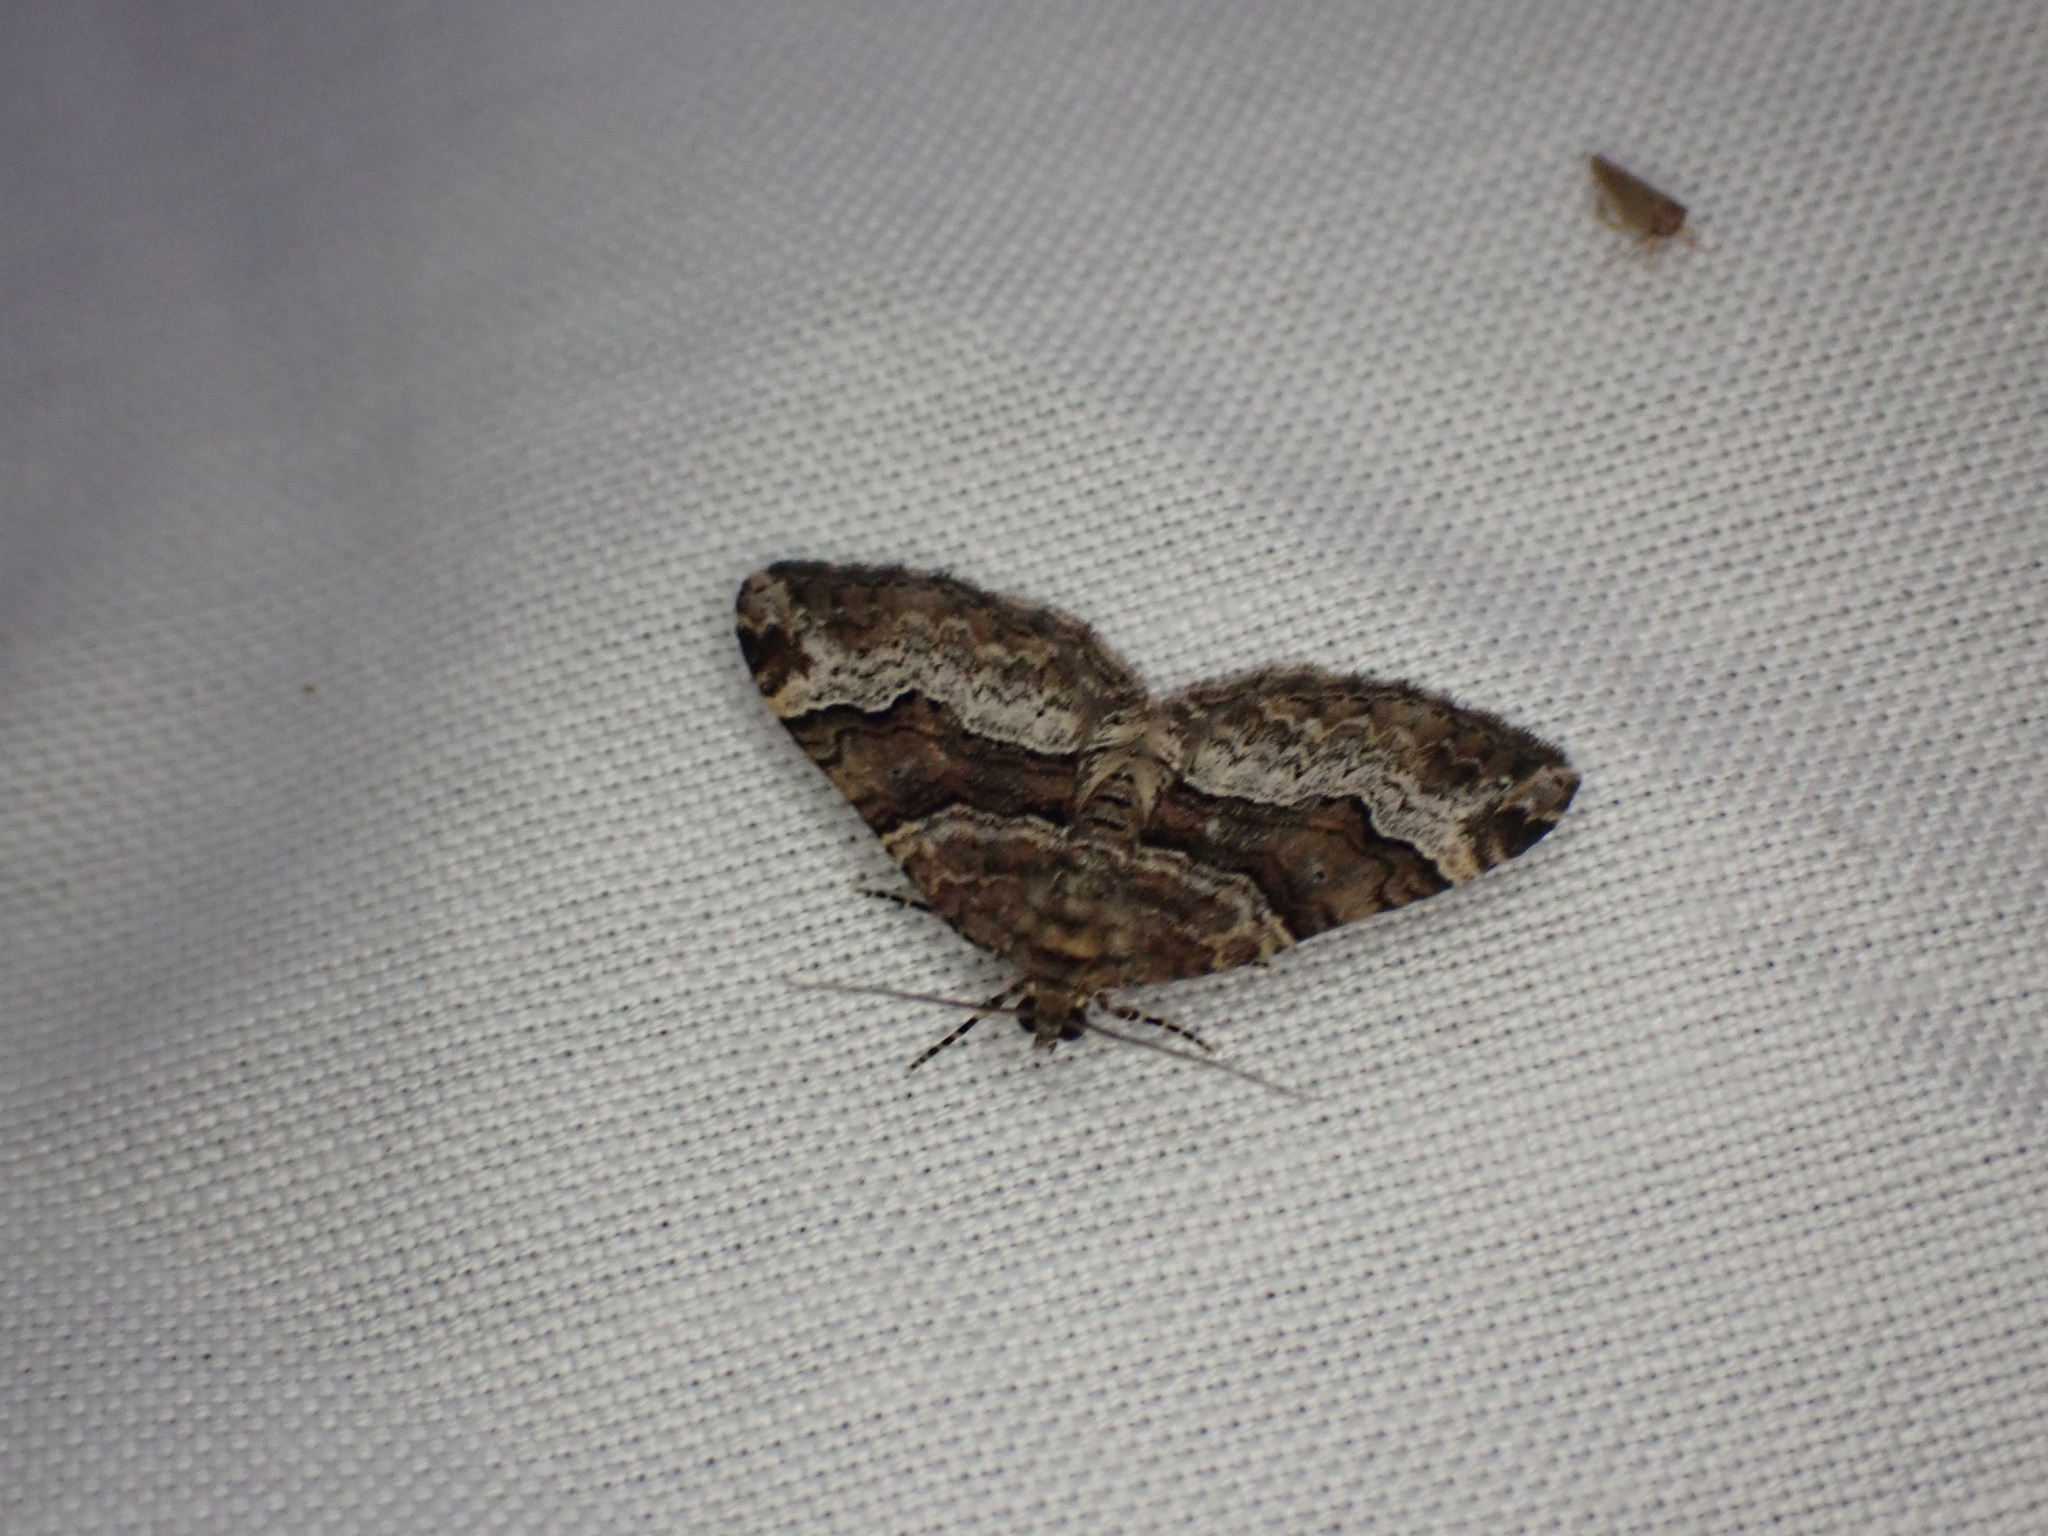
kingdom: Animalia
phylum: Arthropoda
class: Insecta
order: Lepidoptera
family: Geometridae
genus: Xanthorhoe
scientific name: Xanthorhoe lacustrata
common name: Toothed brown carpet
